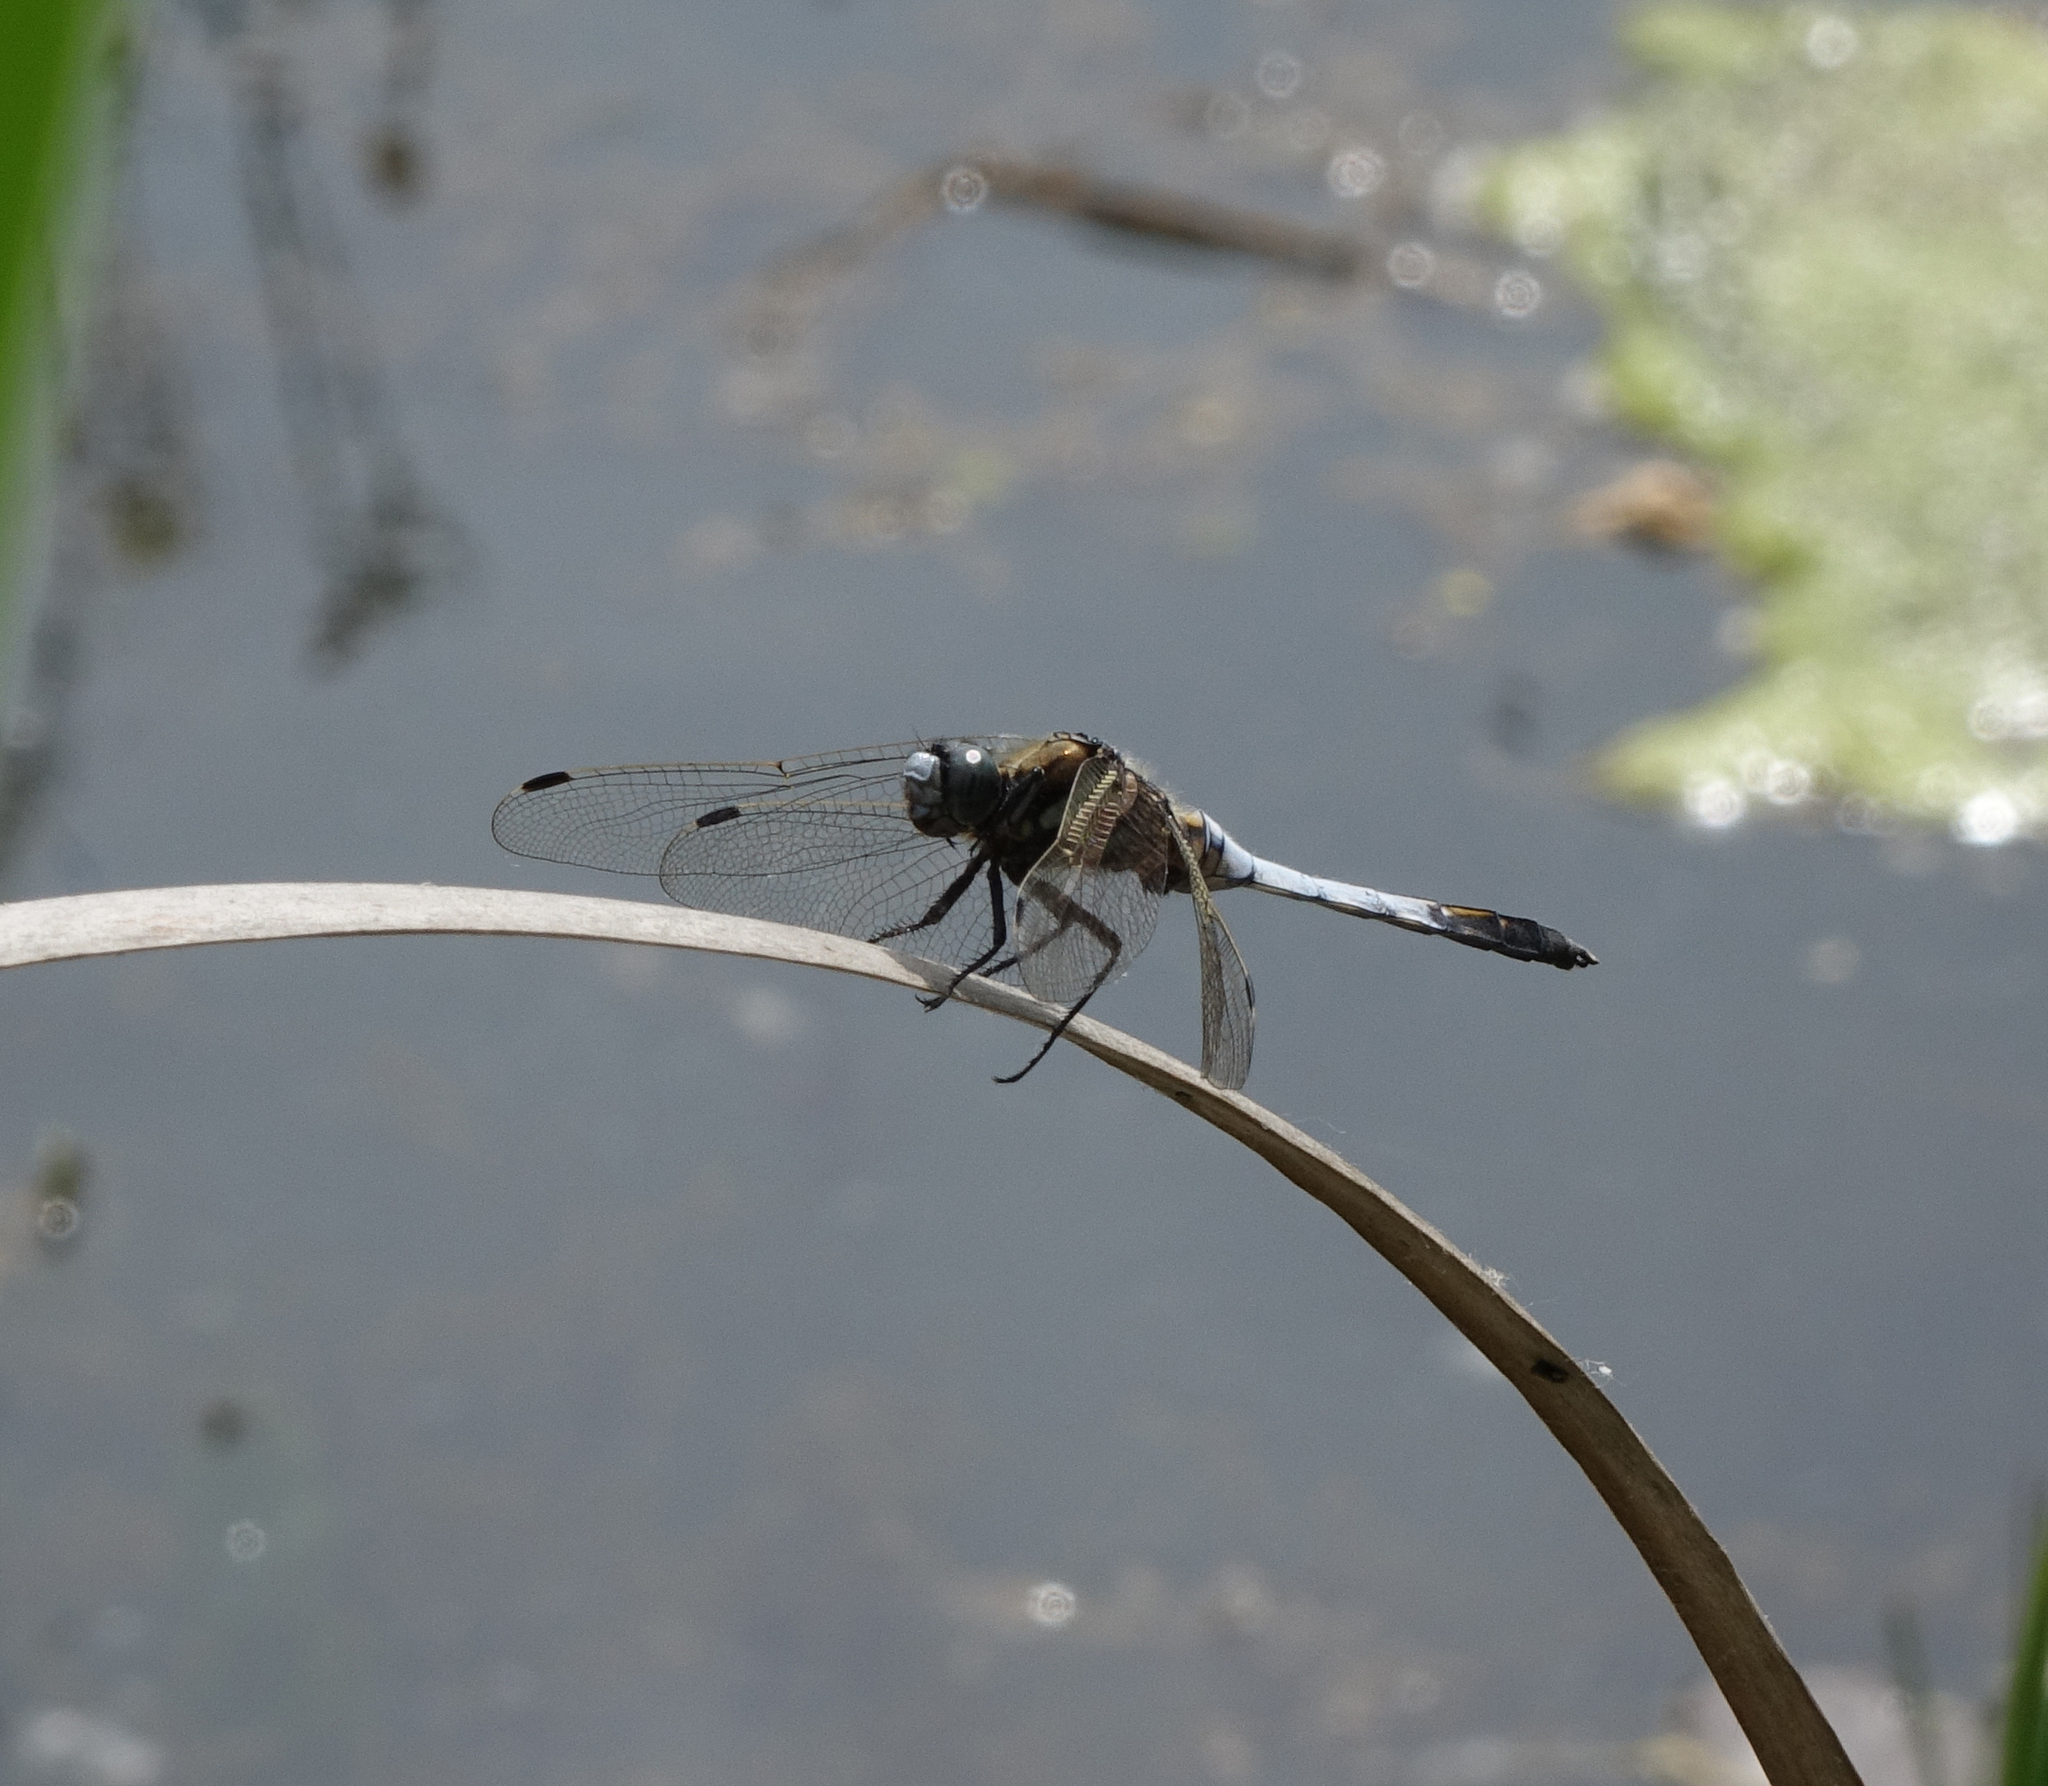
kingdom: Animalia
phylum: Arthropoda
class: Insecta
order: Odonata
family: Libellulidae
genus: Orthetrum
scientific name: Orthetrum albistylum
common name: White-tailed skimmer
